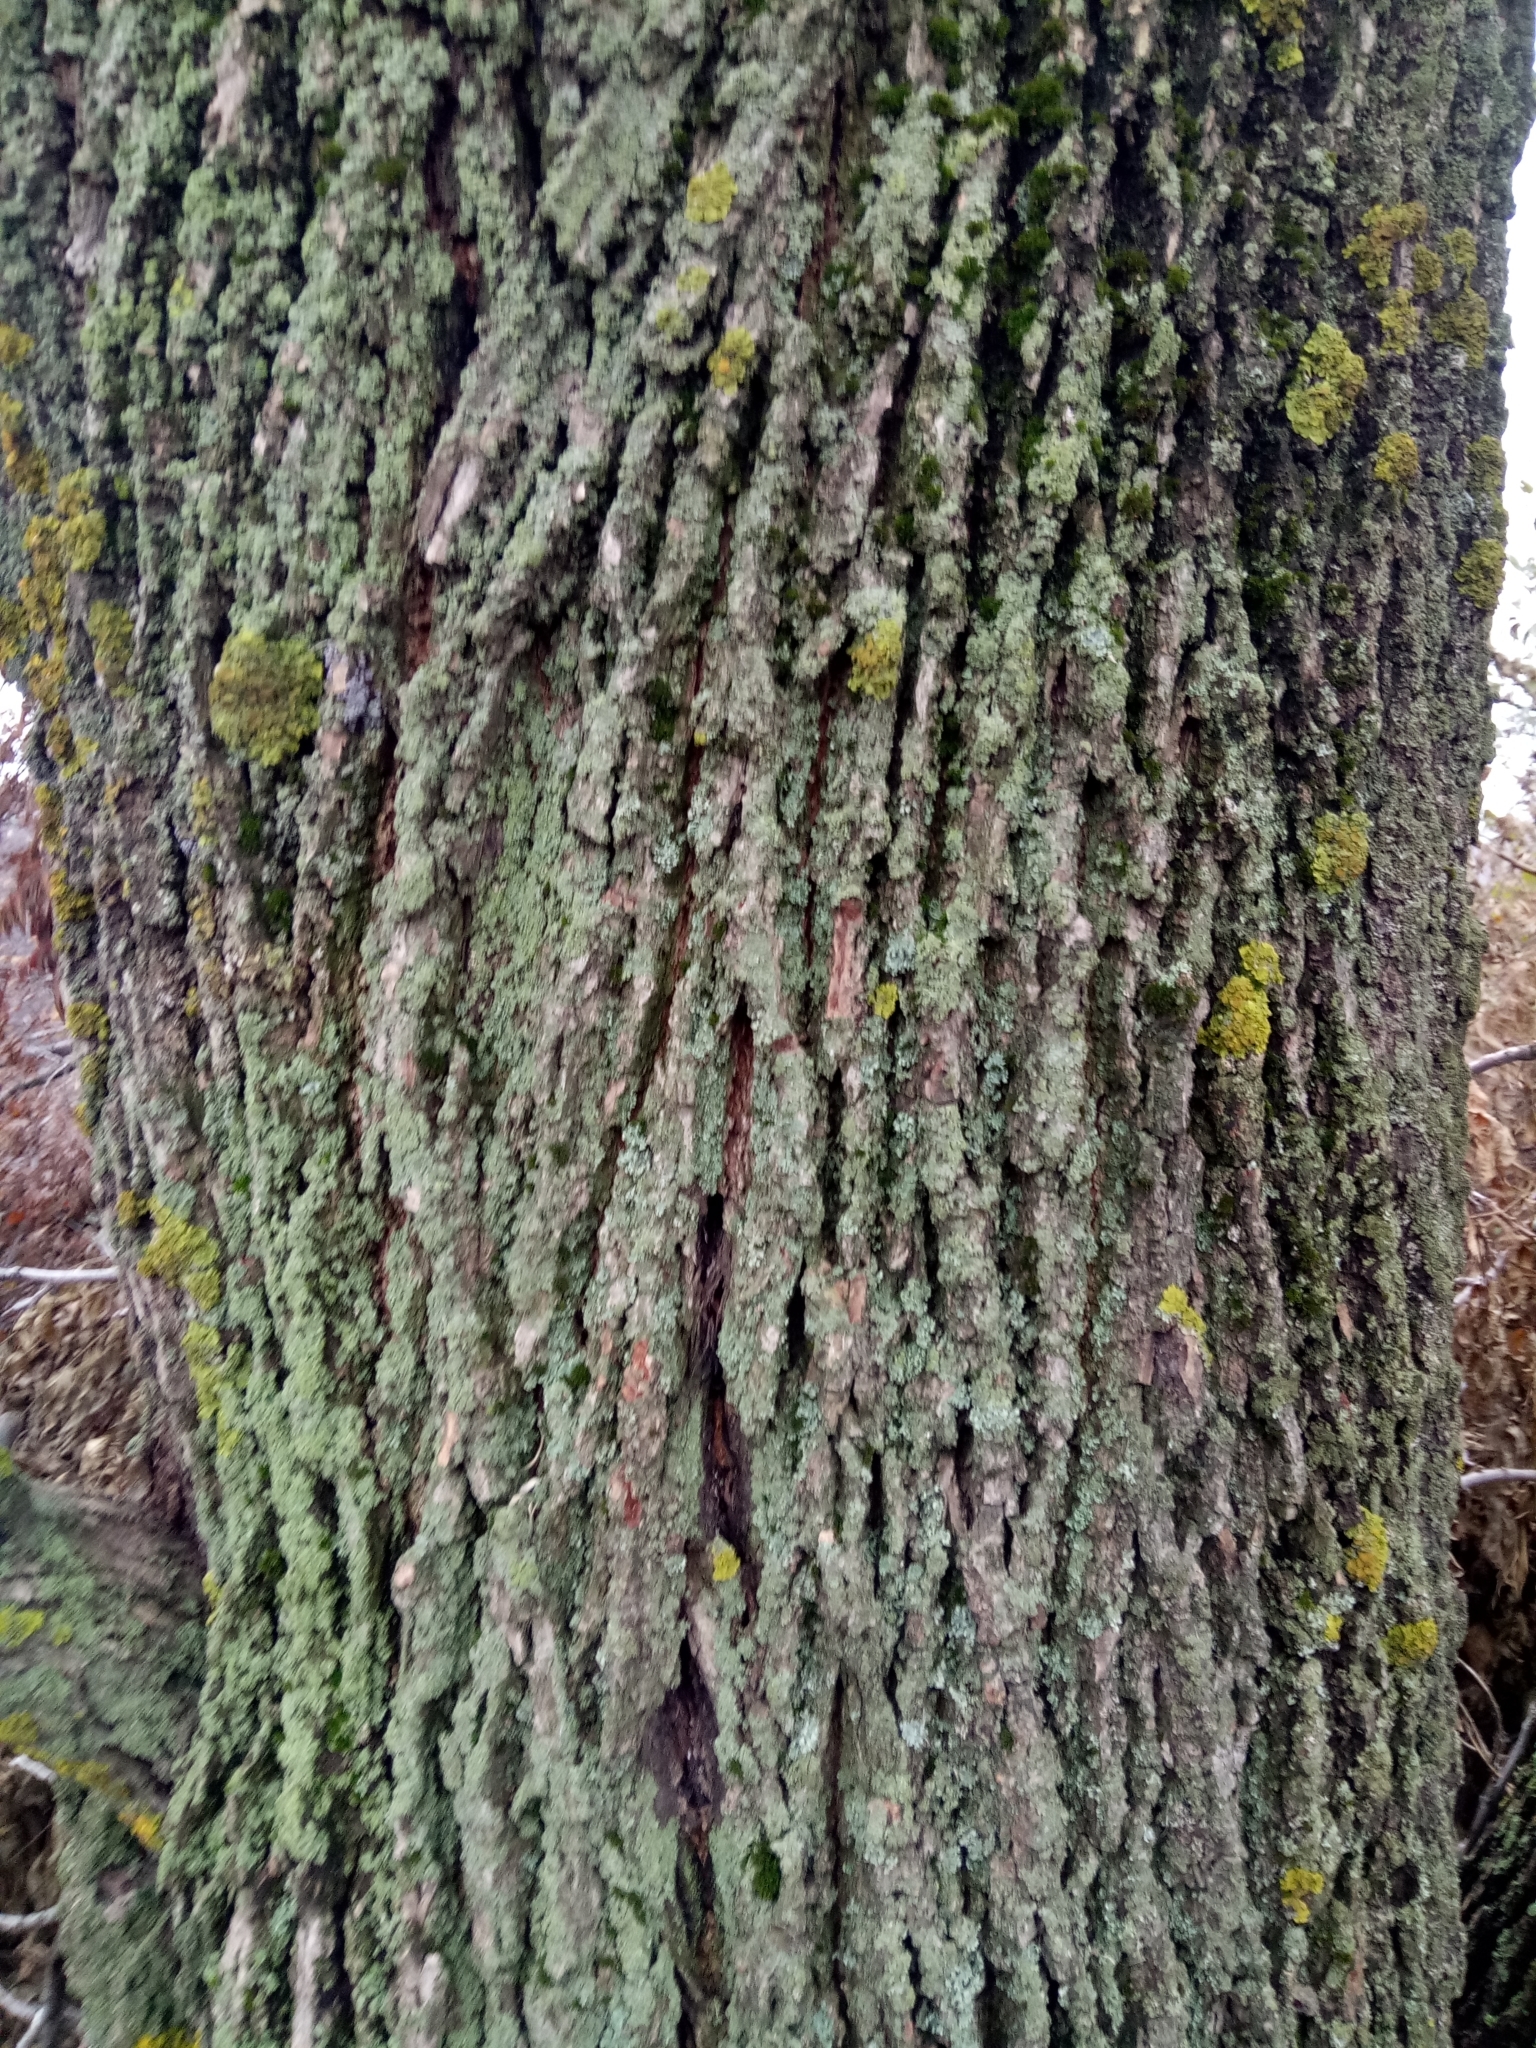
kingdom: Plantae
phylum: Tracheophyta
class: Magnoliopsida
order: Fagales
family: Juglandaceae
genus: Juglans
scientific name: Juglans regia
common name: Walnut
